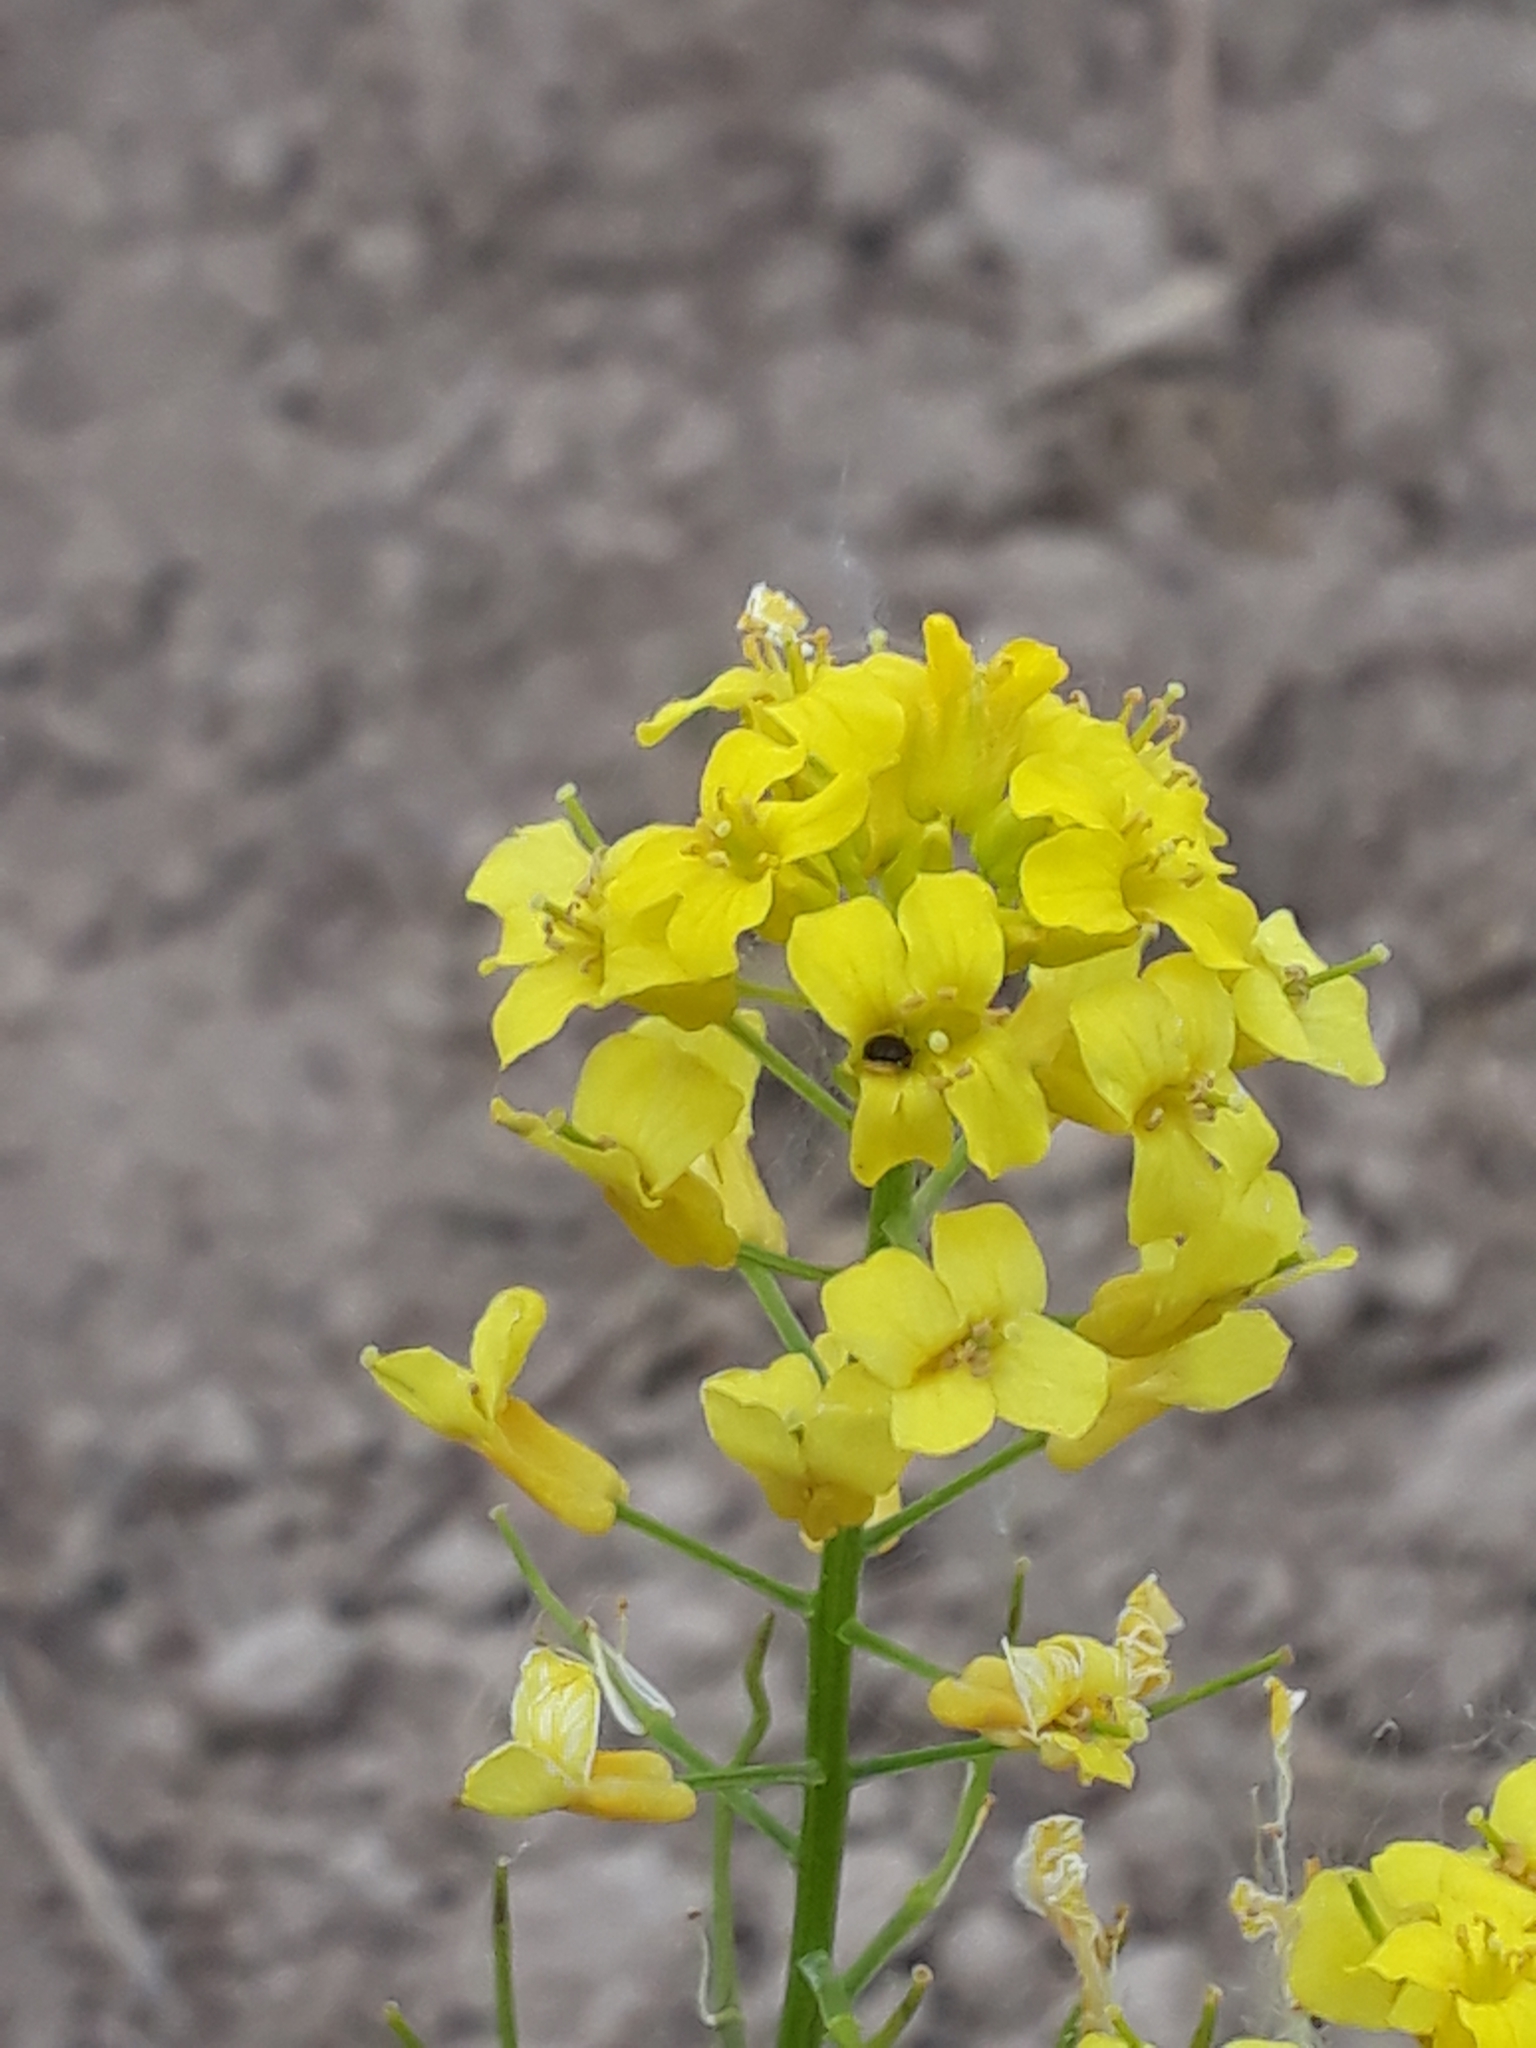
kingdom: Plantae
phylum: Tracheophyta
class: Magnoliopsida
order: Brassicales
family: Brassicaceae
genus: Barbarea
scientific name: Barbarea vulgaris
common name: Cressy-greens
